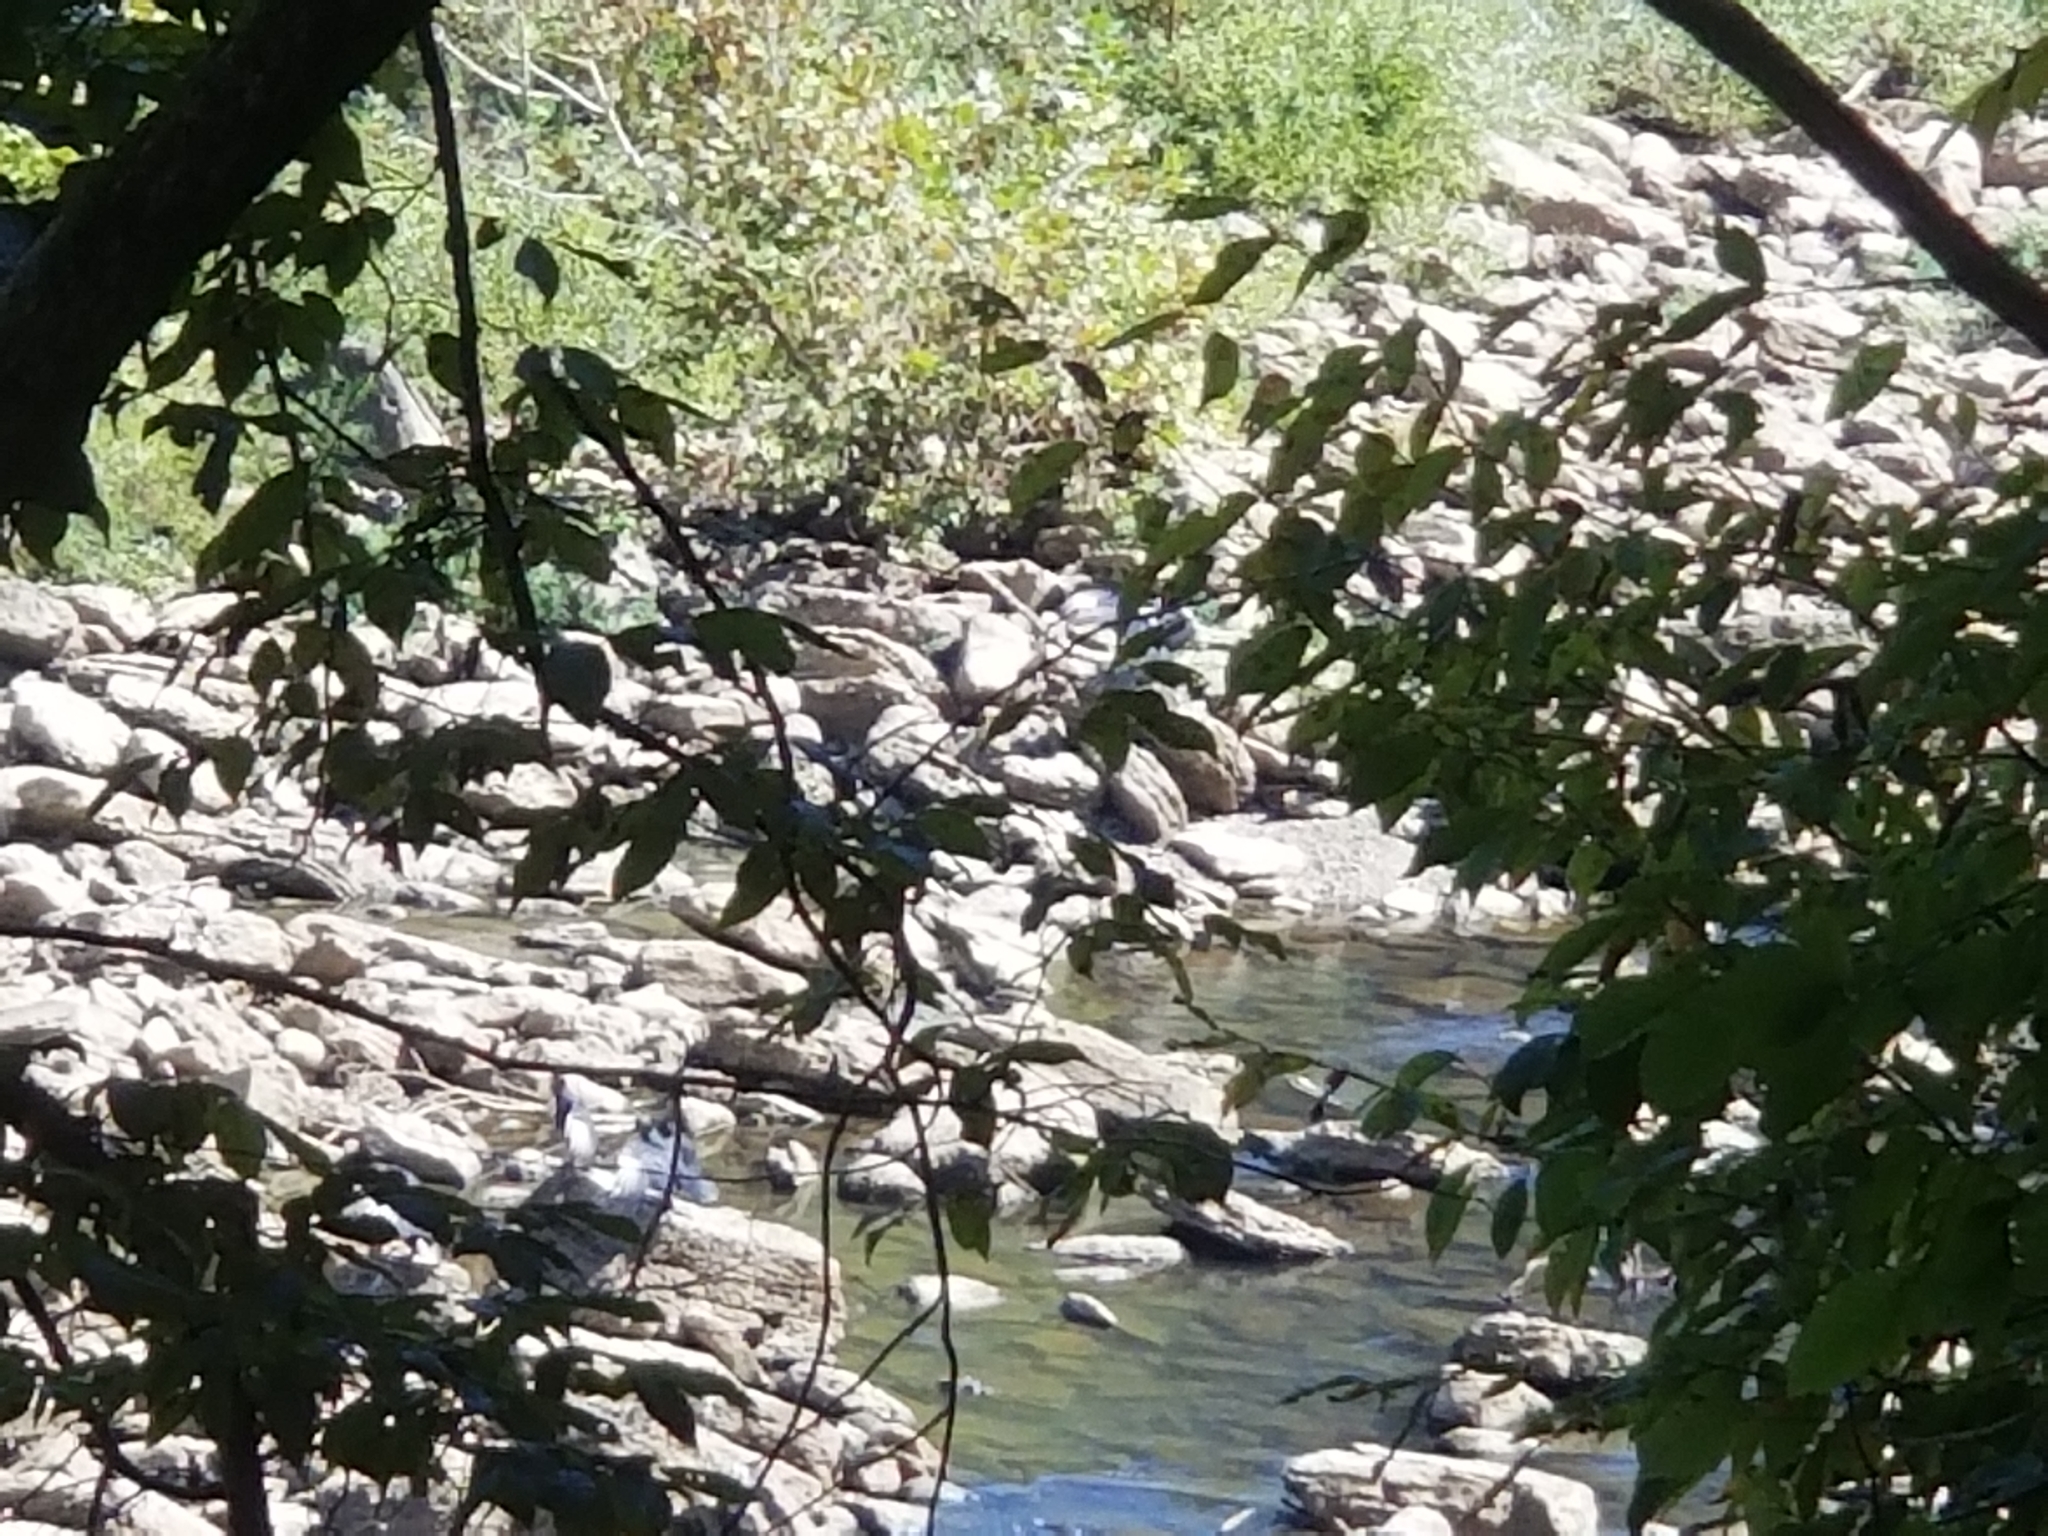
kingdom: Animalia
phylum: Chordata
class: Aves
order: Accipitriformes
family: Cathartidae
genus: Coragyps
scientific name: Coragyps atratus
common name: Black vulture
